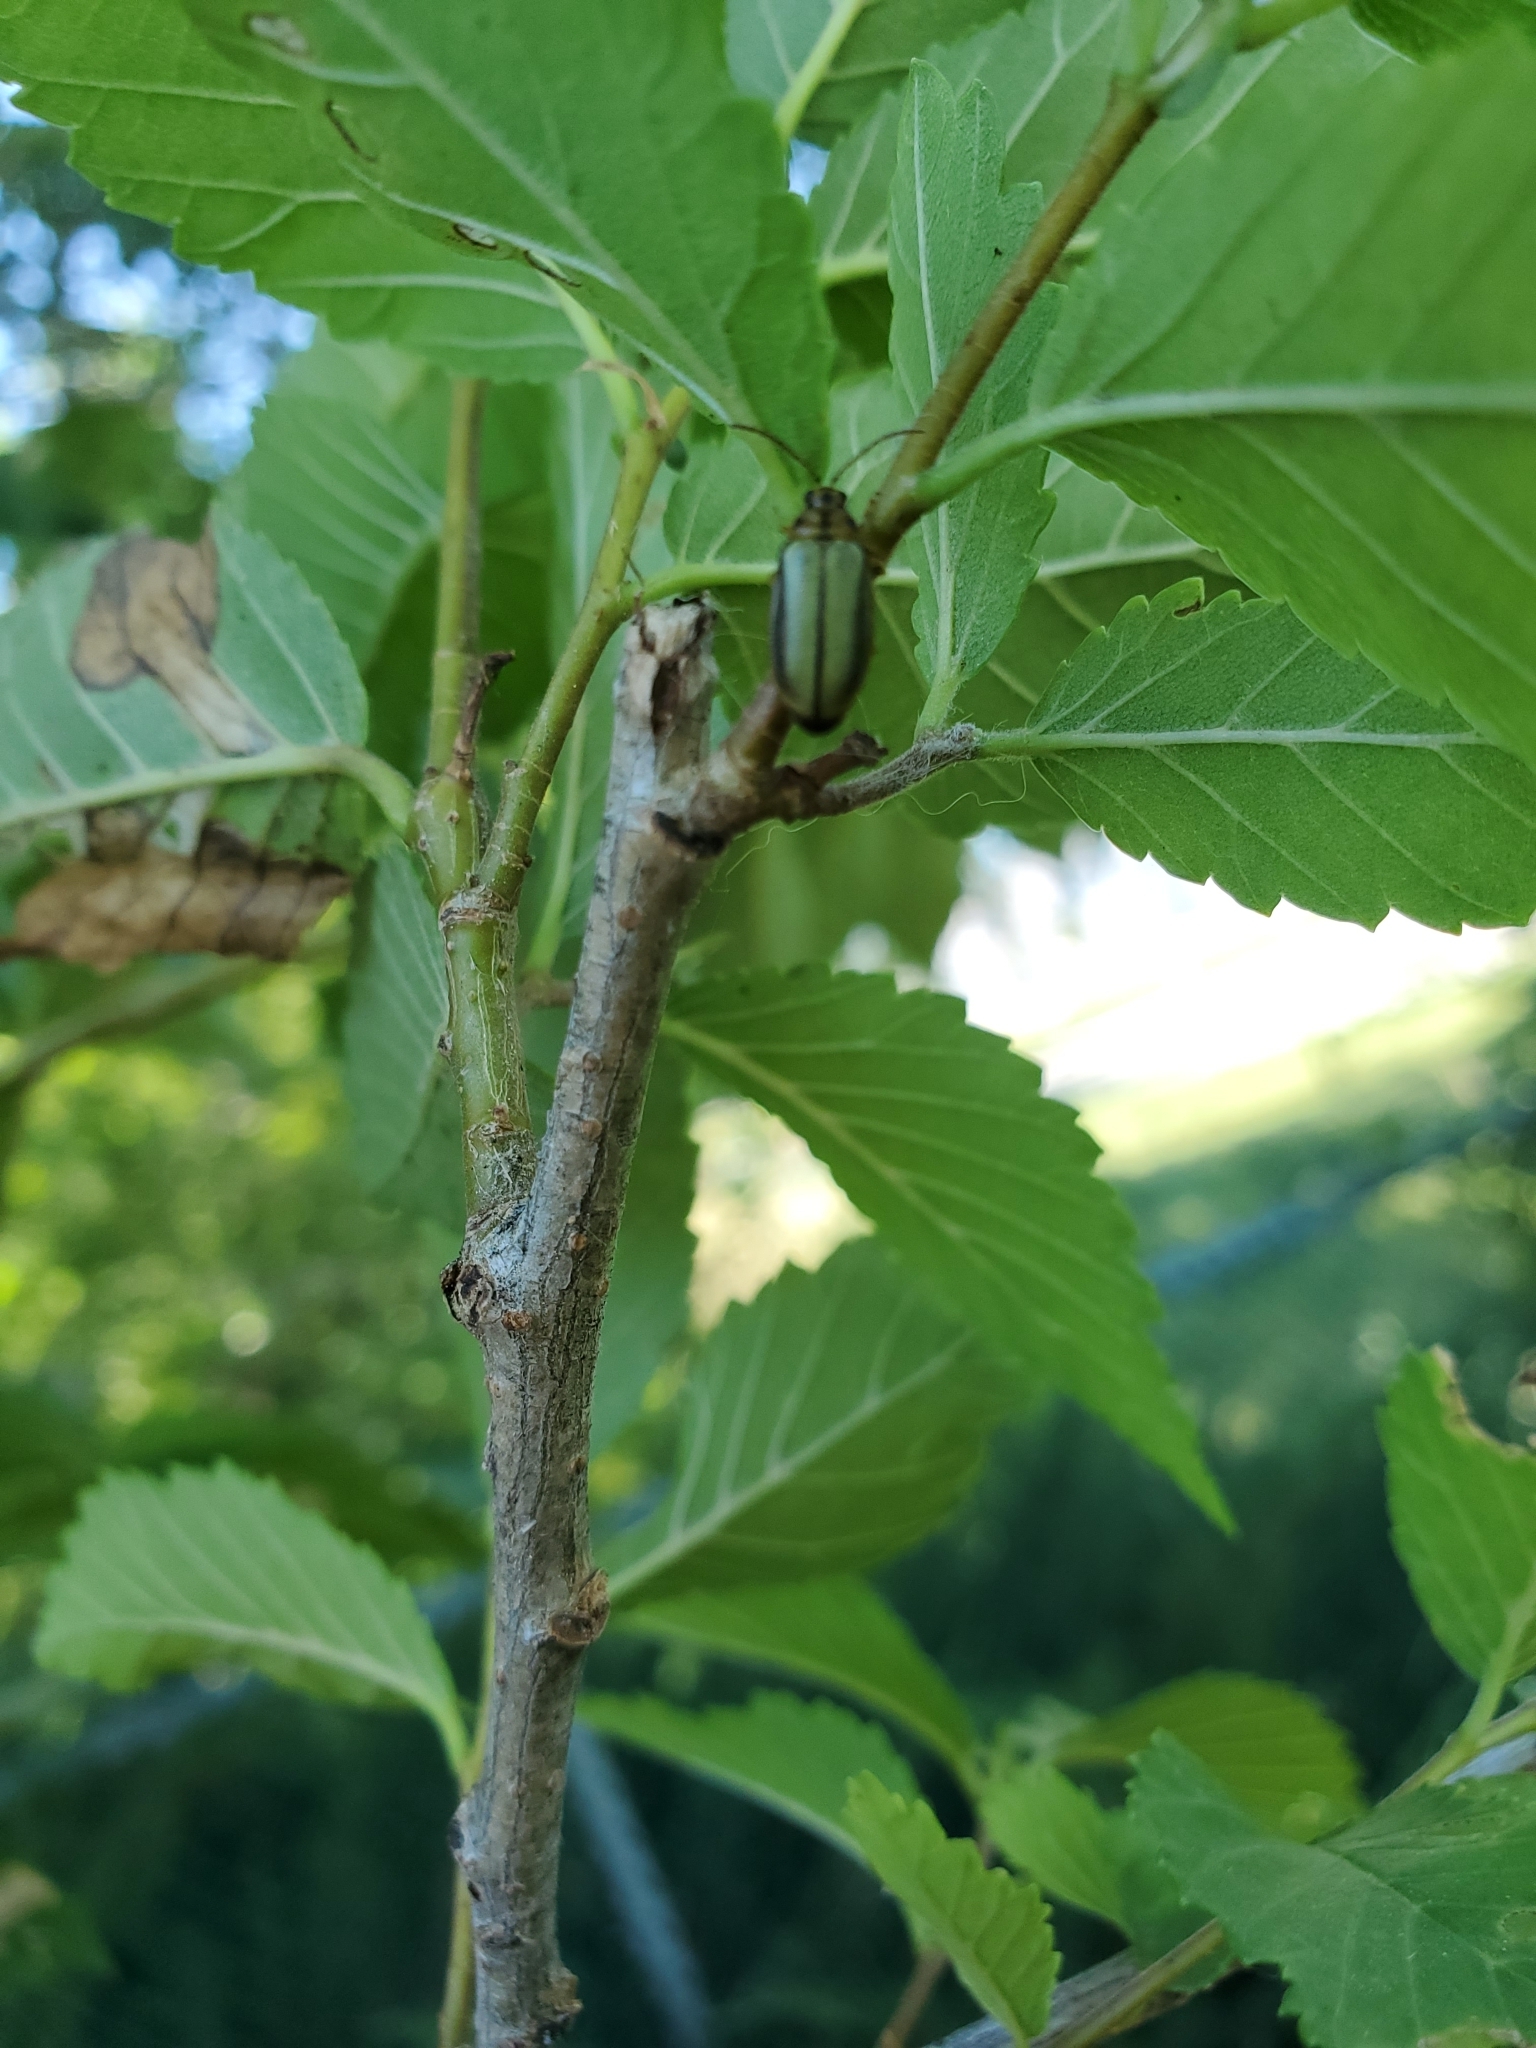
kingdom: Animalia
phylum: Arthropoda
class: Insecta
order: Coleoptera
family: Chrysomelidae
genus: Xanthogaleruca
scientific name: Xanthogaleruca luteola
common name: Elm leaf beetle
